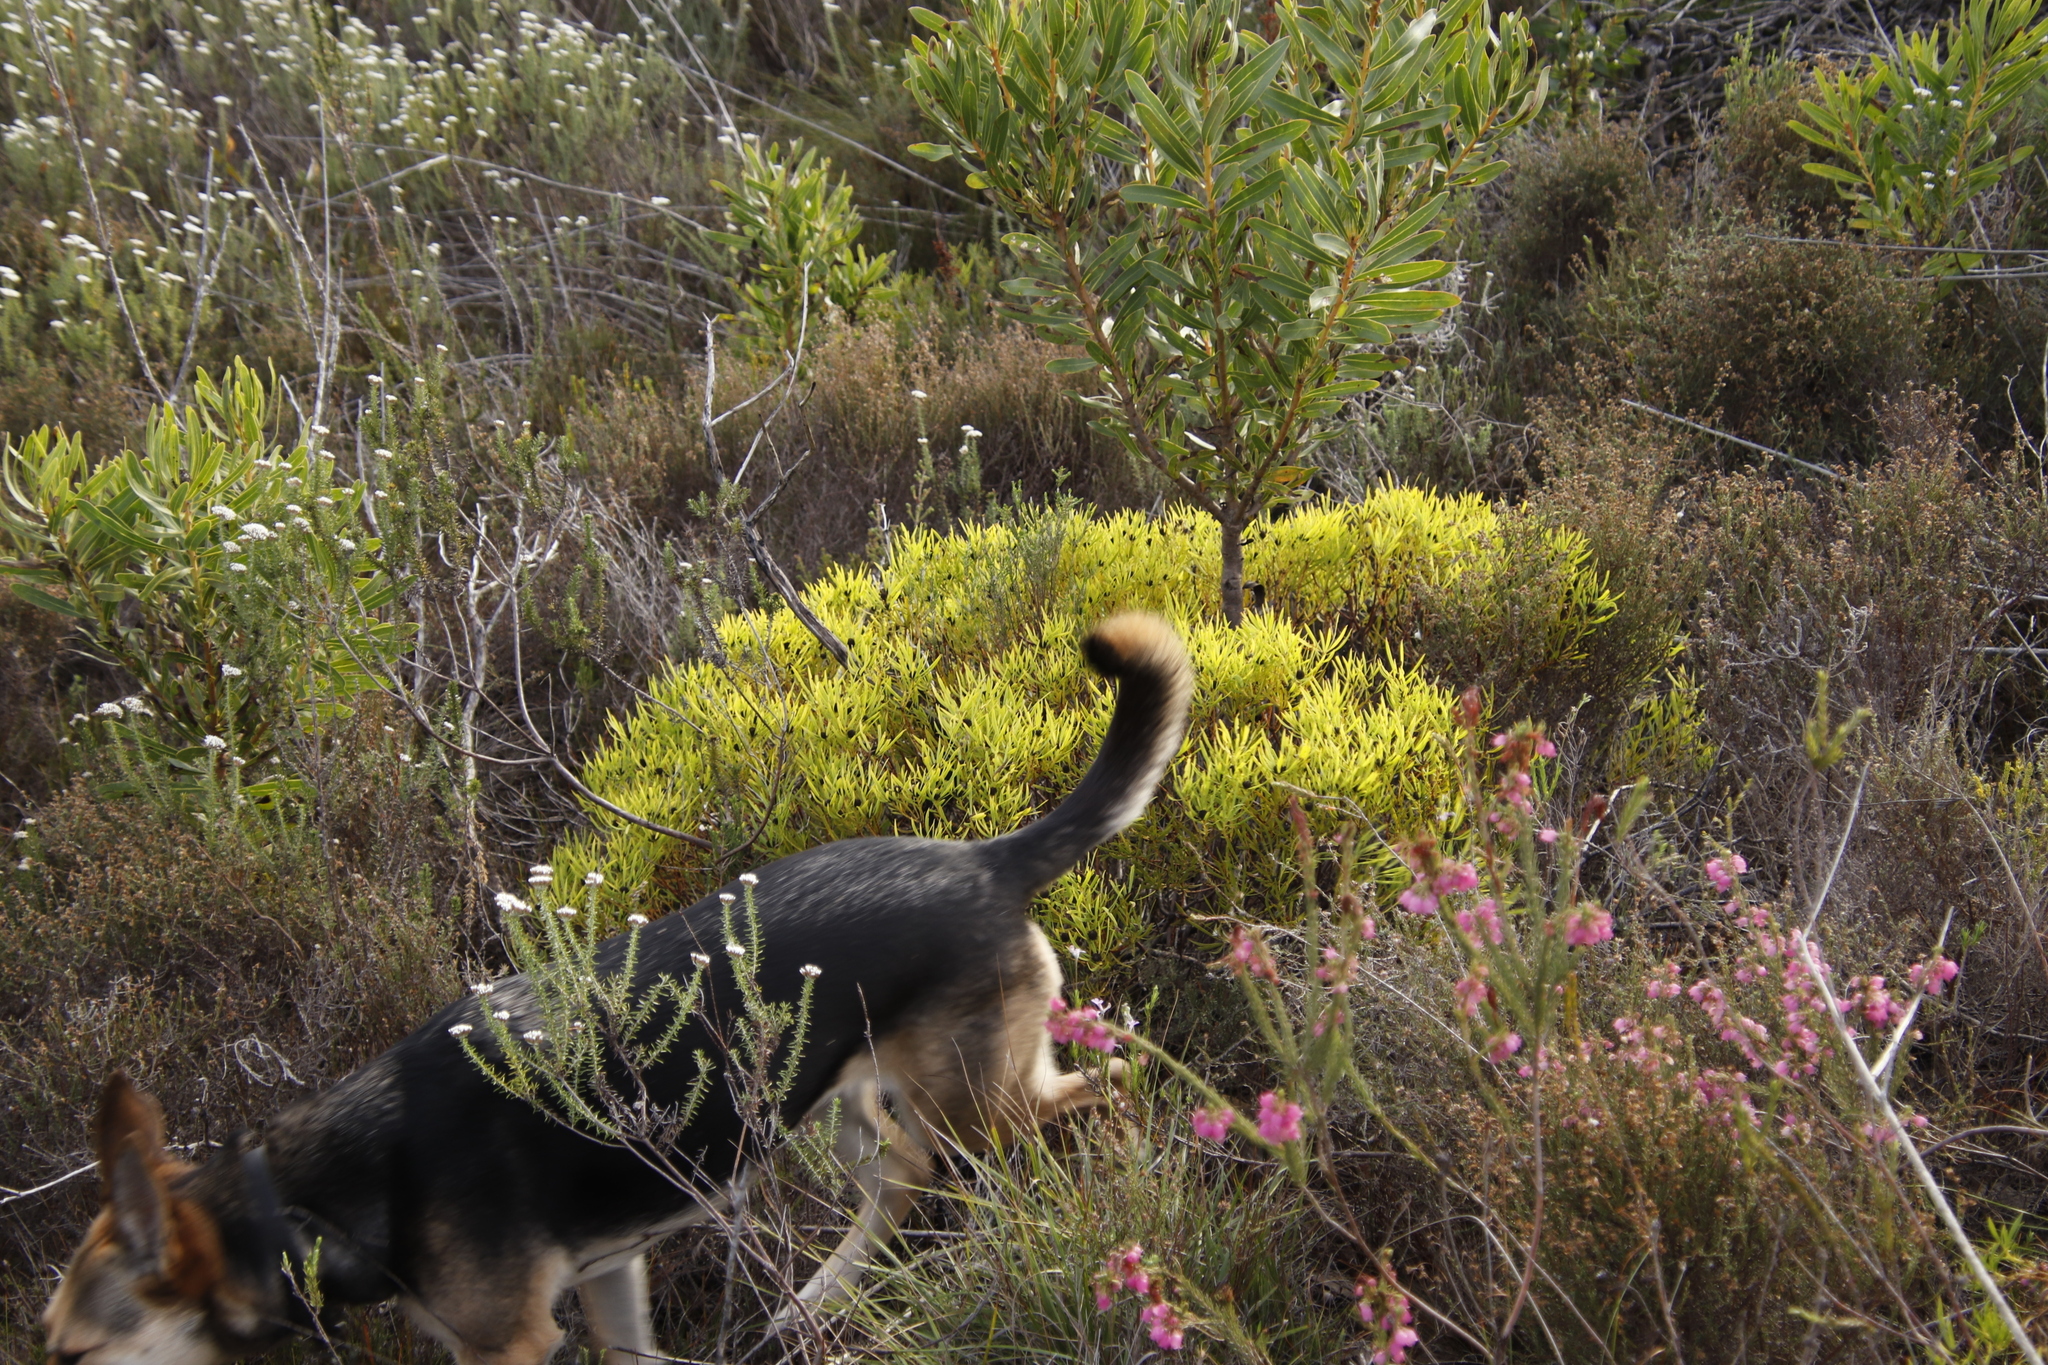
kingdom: Plantae
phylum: Tracheophyta
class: Magnoliopsida
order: Proteales
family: Proteaceae
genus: Leucadendron
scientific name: Leucadendron salignum
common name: Common sunshine conebush
